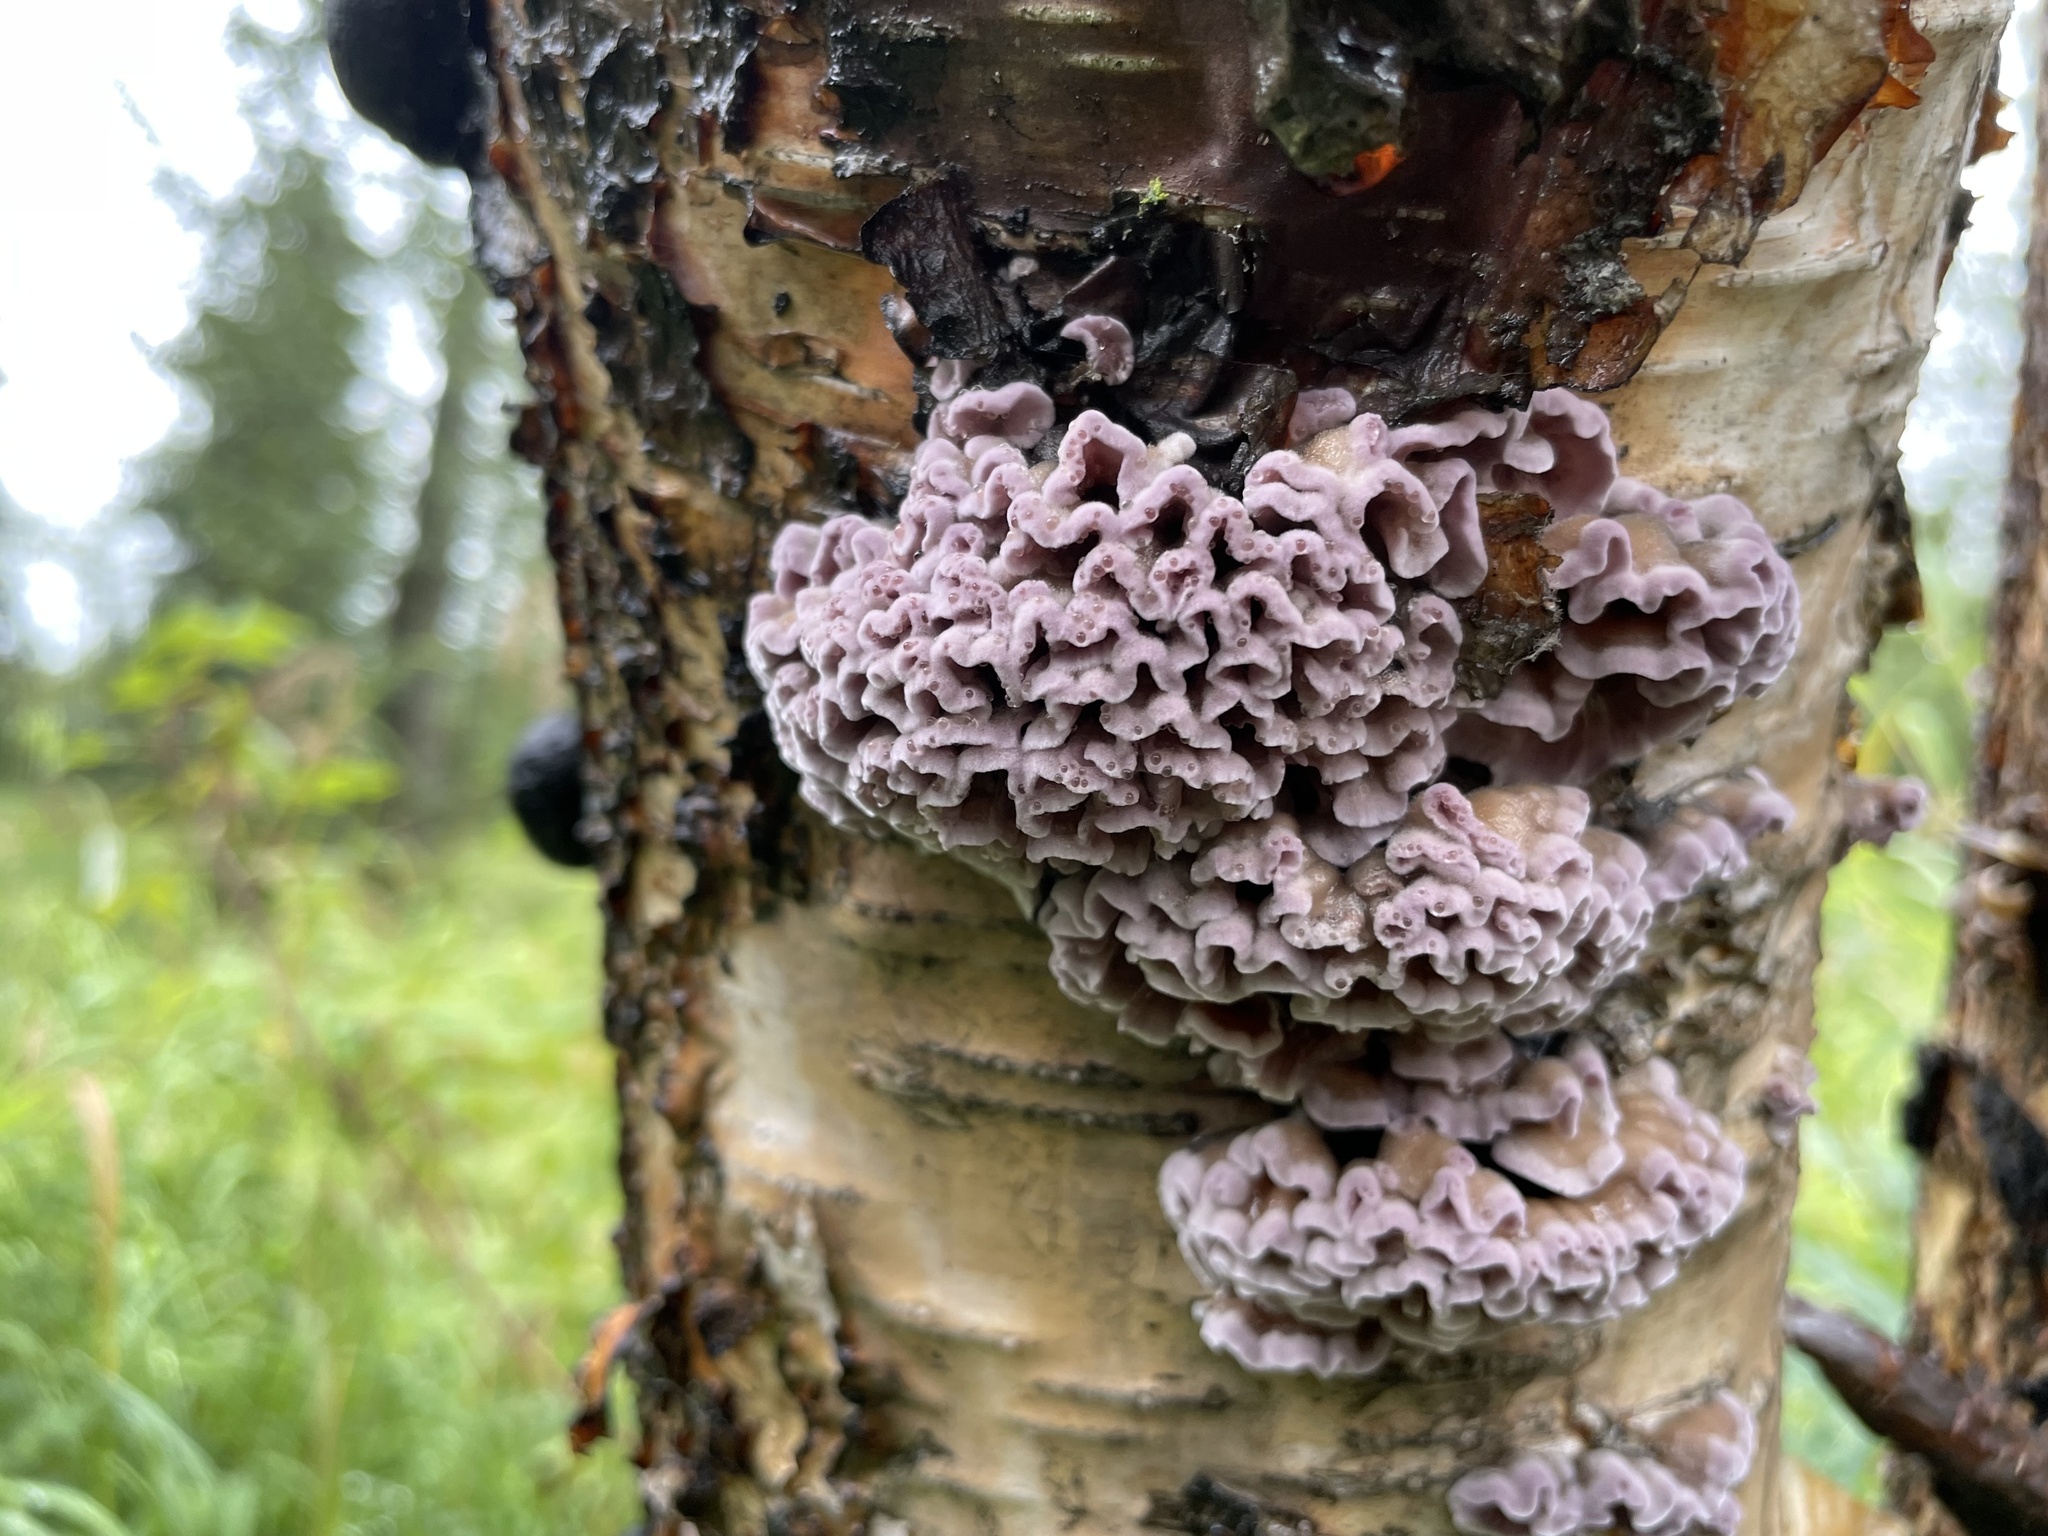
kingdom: Fungi
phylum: Basidiomycota
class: Agaricomycetes
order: Agaricales
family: Cyphellaceae
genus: Chondrostereum
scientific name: Chondrostereum purpureum
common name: Silver leaf disease
